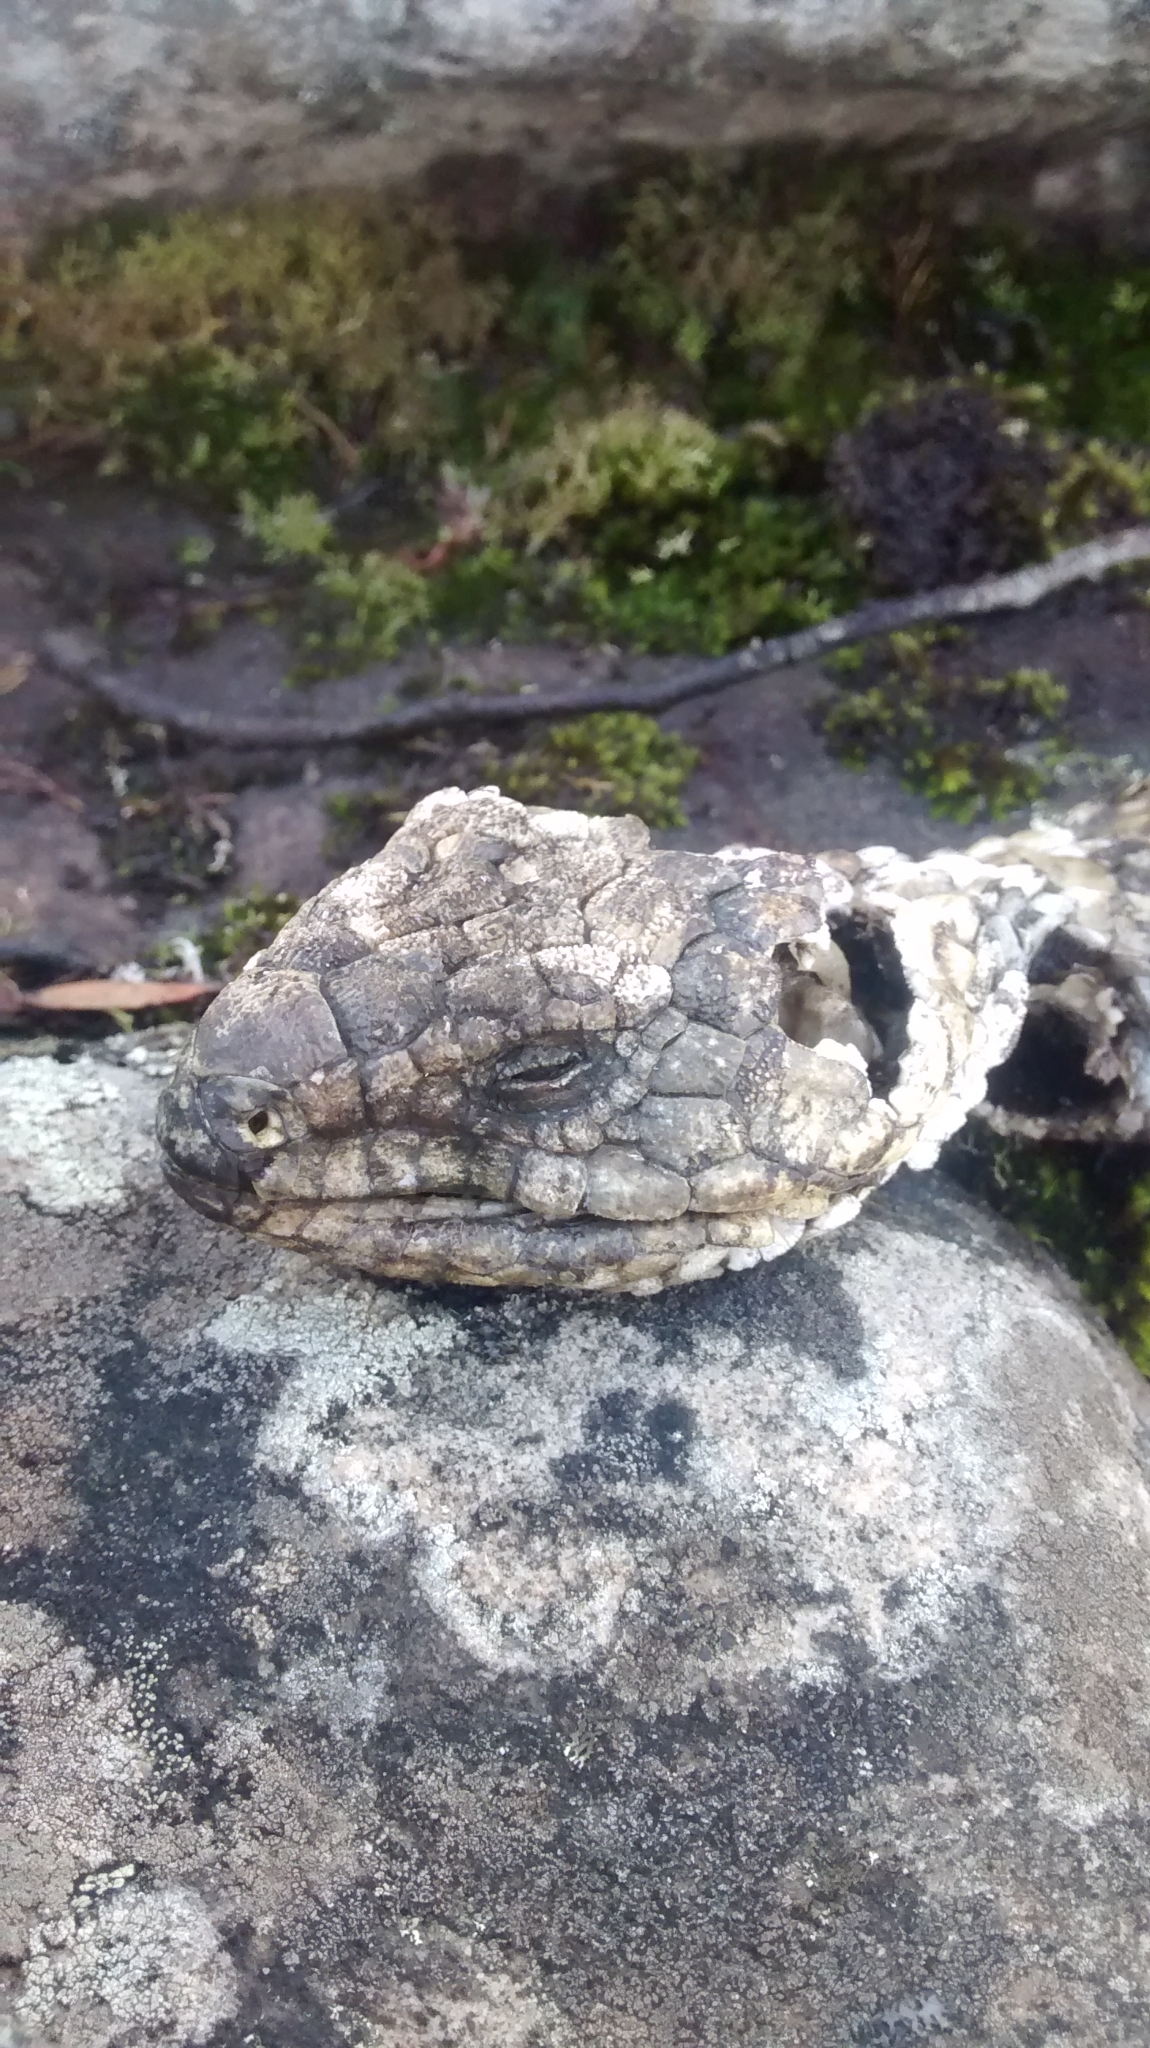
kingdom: Animalia
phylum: Chordata
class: Squamata
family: Scincidae
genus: Tiliqua
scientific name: Tiliqua rugosa
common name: Pinecone lizard
